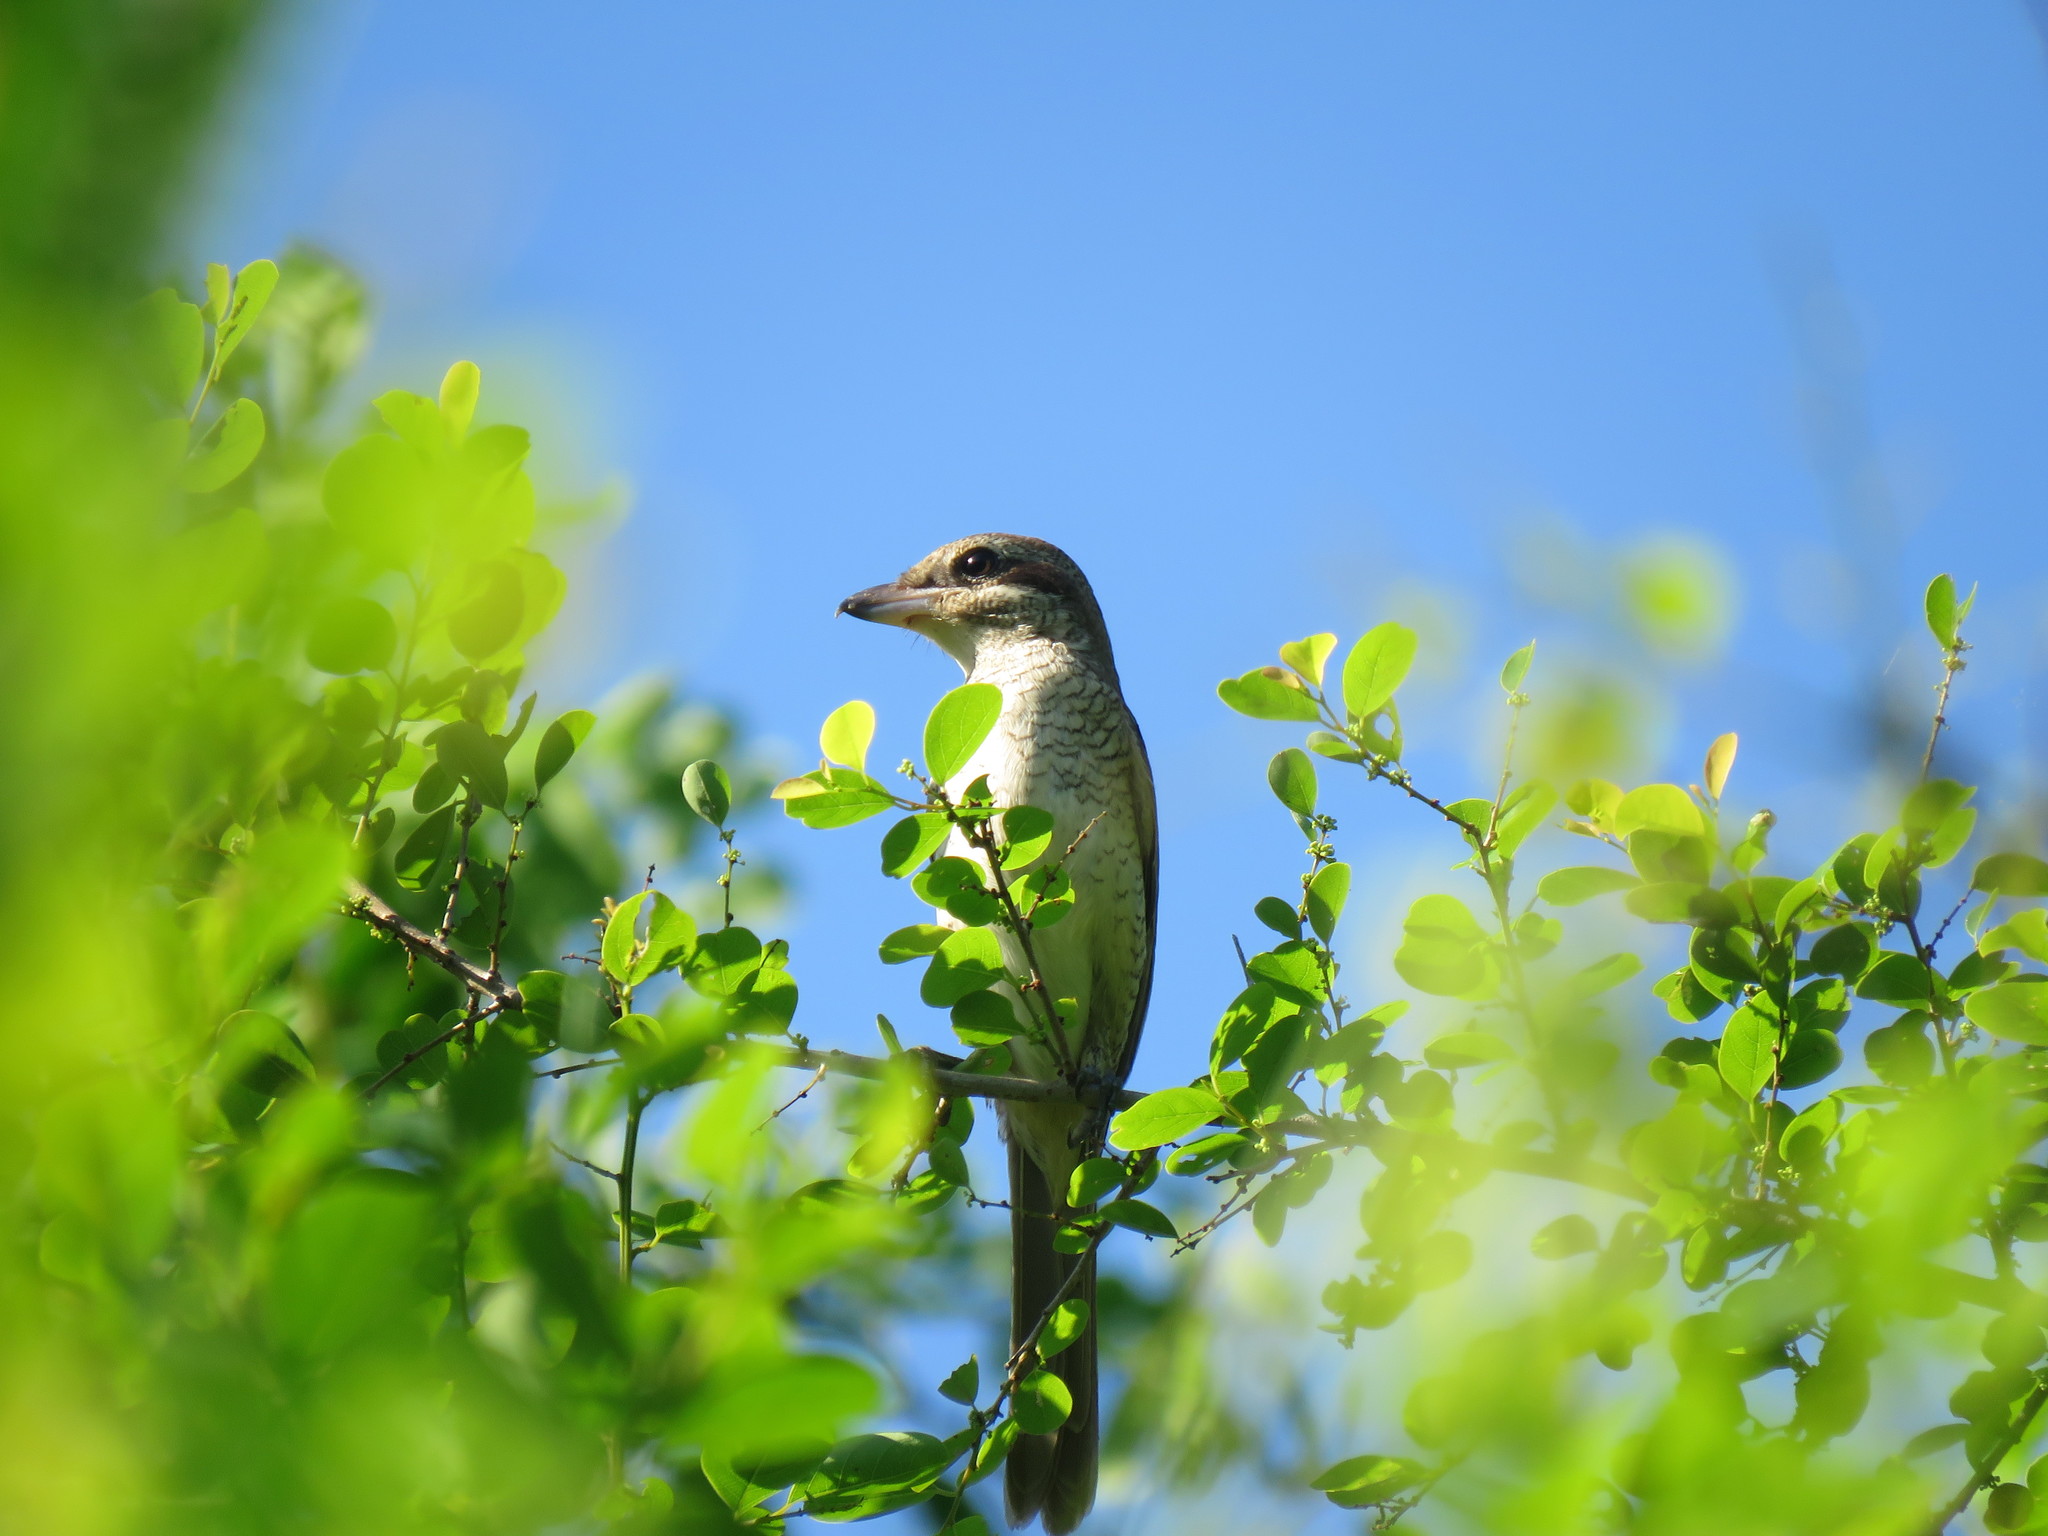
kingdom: Animalia
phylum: Chordata
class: Aves
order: Passeriformes
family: Laniidae
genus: Lanius
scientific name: Lanius cristatus
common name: Brown shrike
